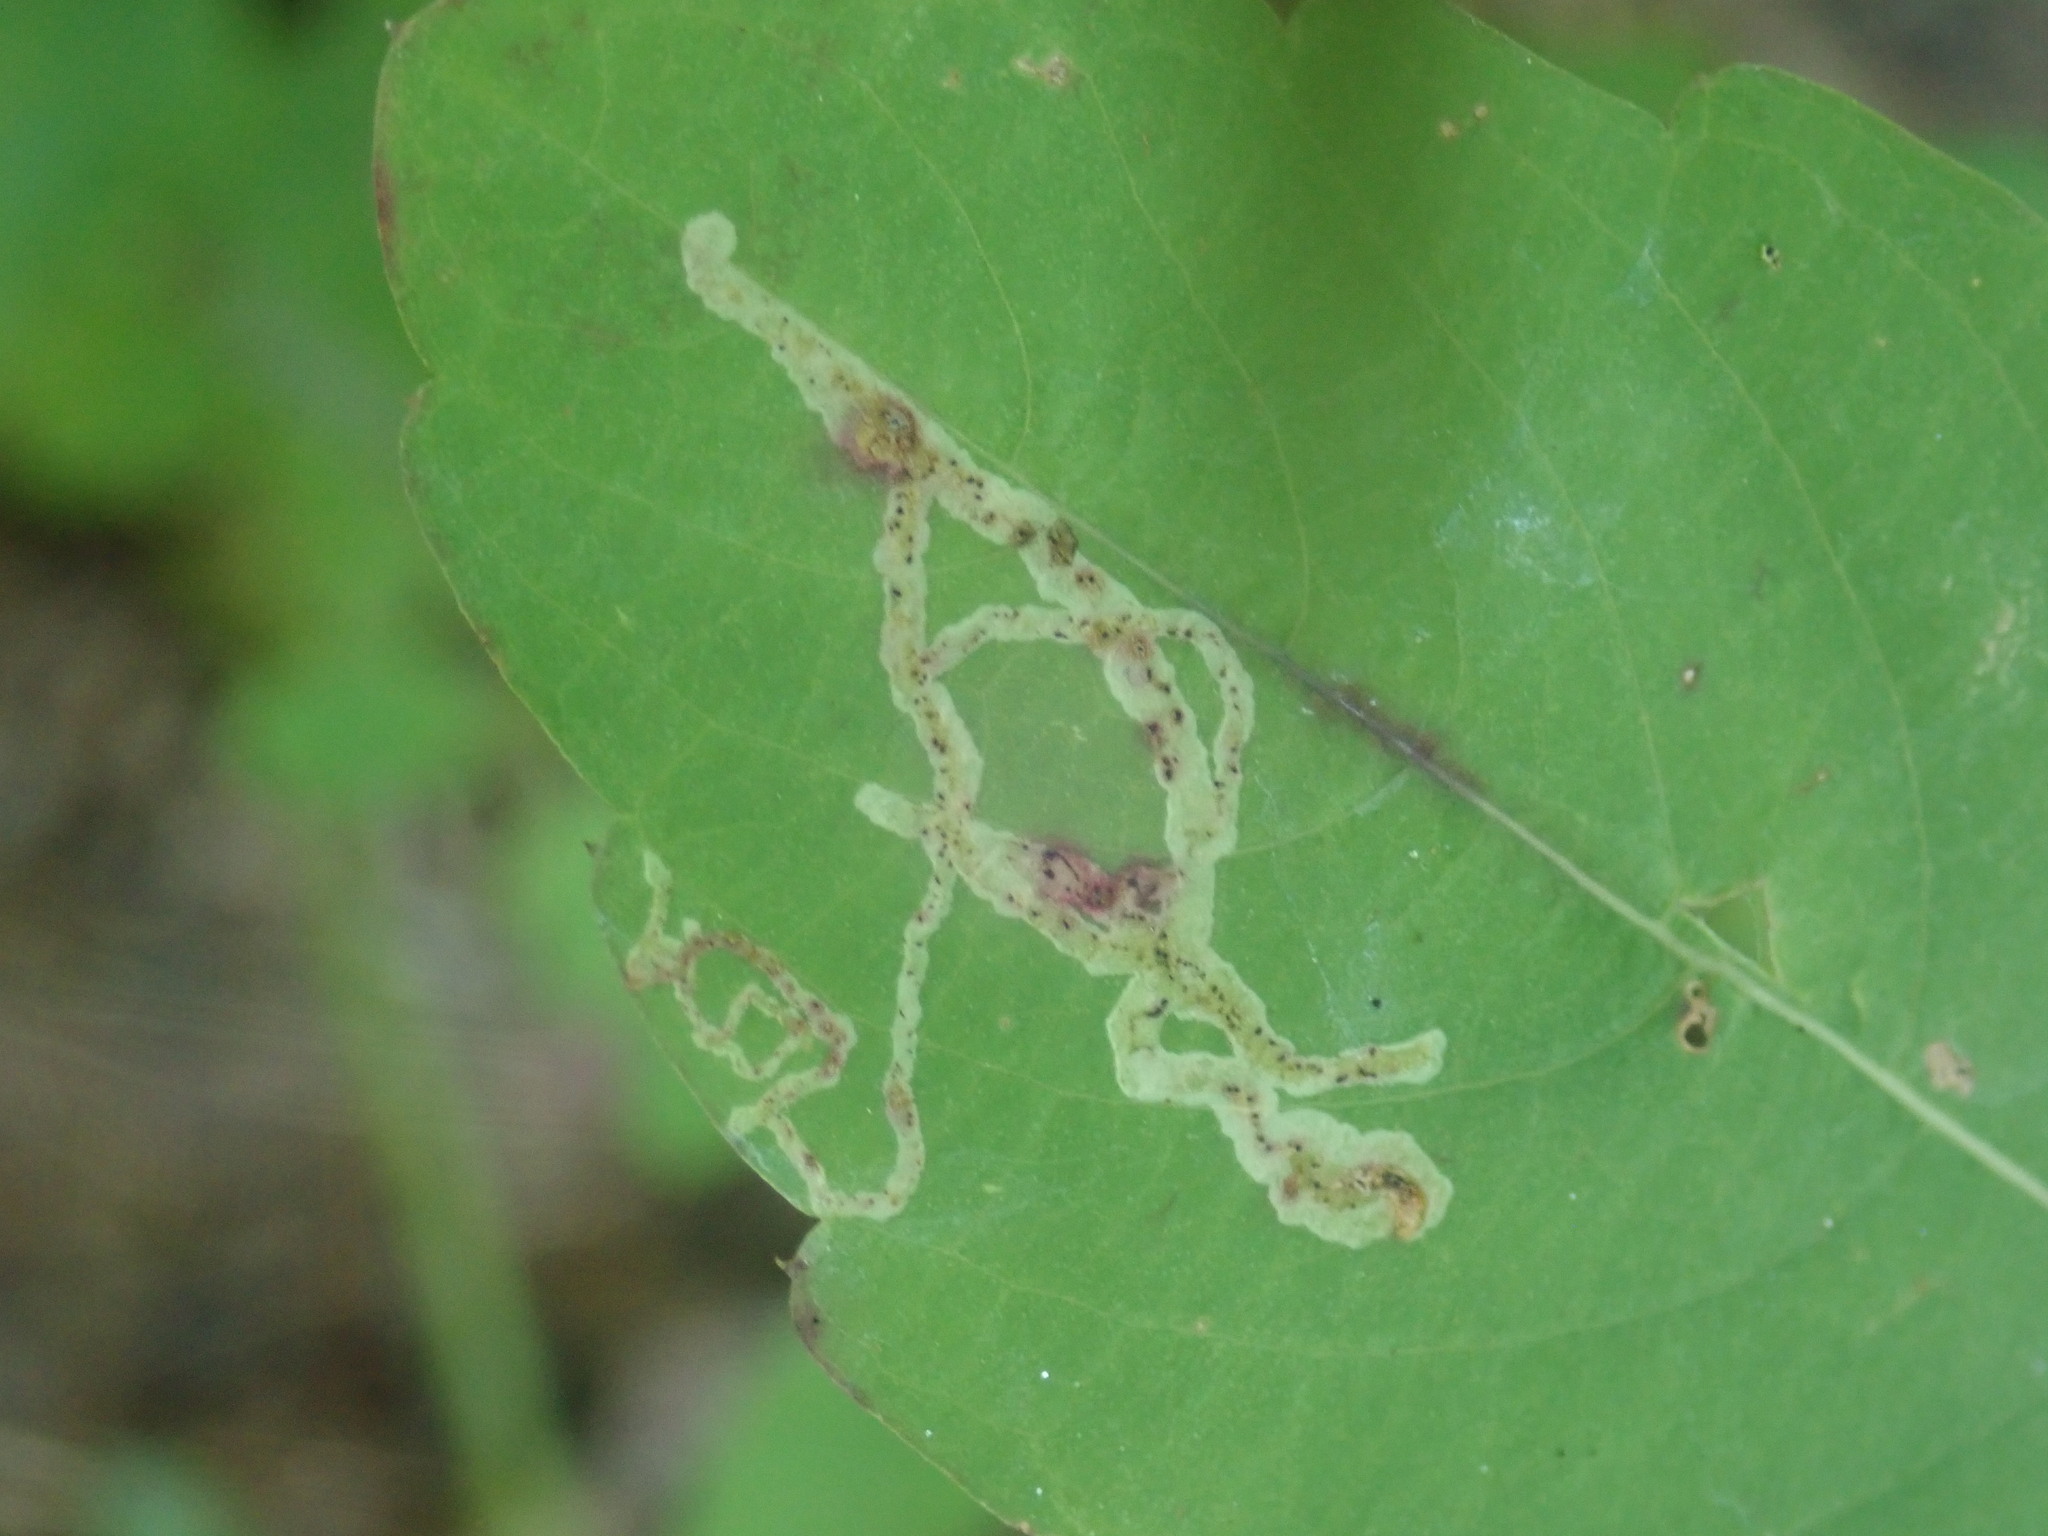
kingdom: Animalia
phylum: Arthropoda
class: Insecta
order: Diptera
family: Agromyzidae
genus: Phytoliriomyza
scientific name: Phytoliriomyza melampyga
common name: Jewelweed leaf-miner fly
